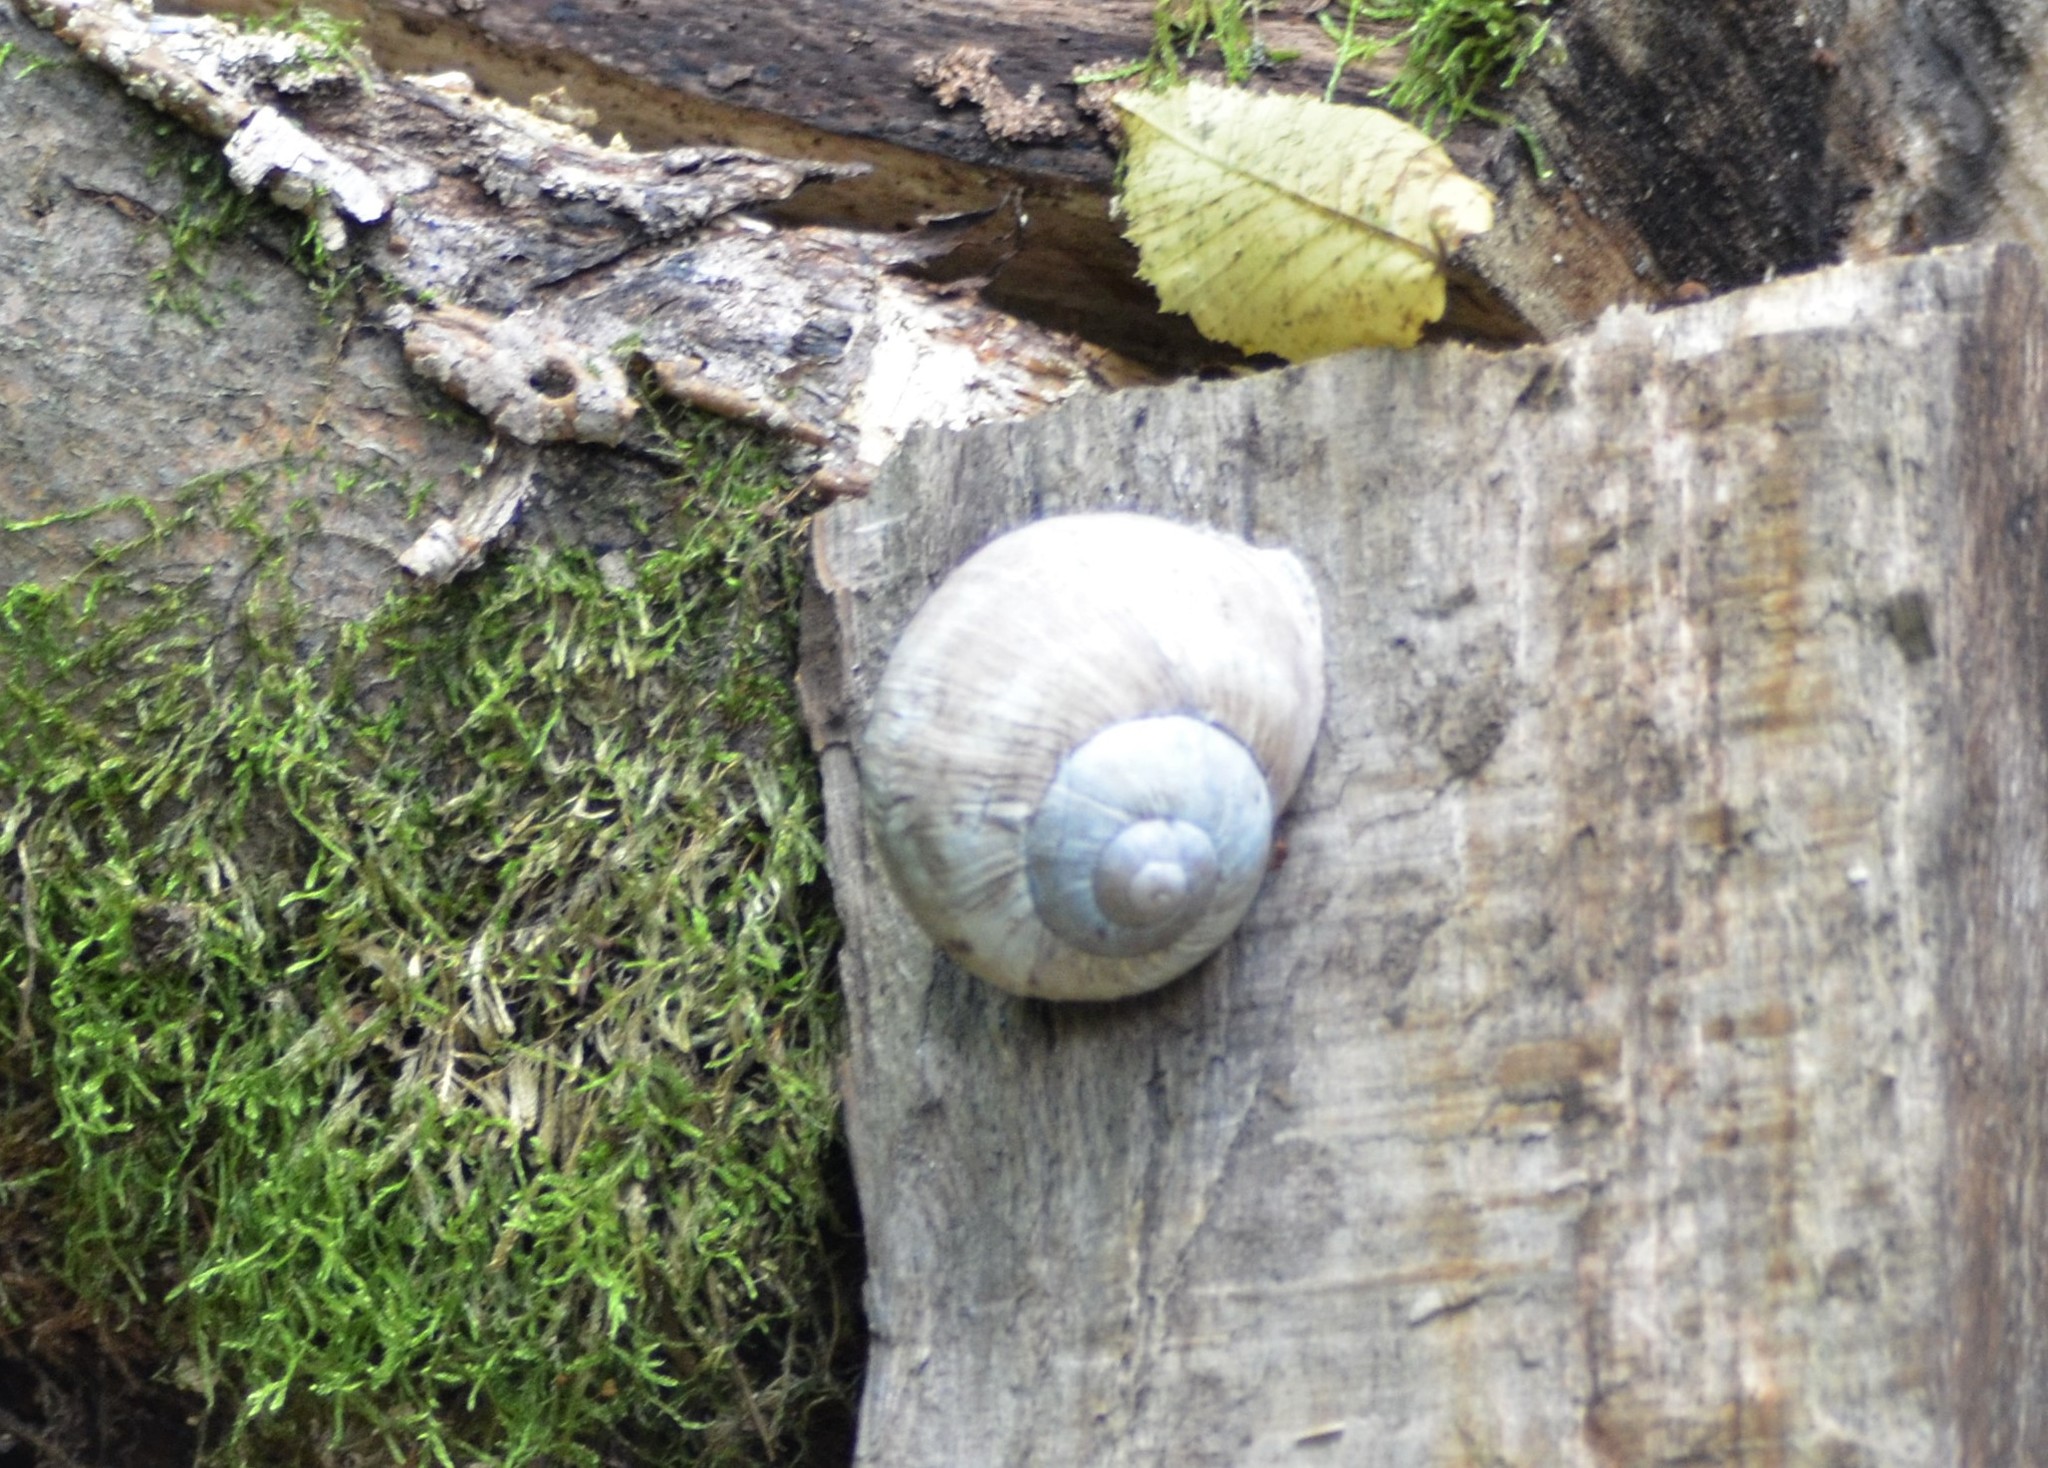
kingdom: Animalia
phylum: Mollusca
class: Gastropoda
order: Stylommatophora
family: Helicidae
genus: Helix
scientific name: Helix pomatia
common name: Roman snail
